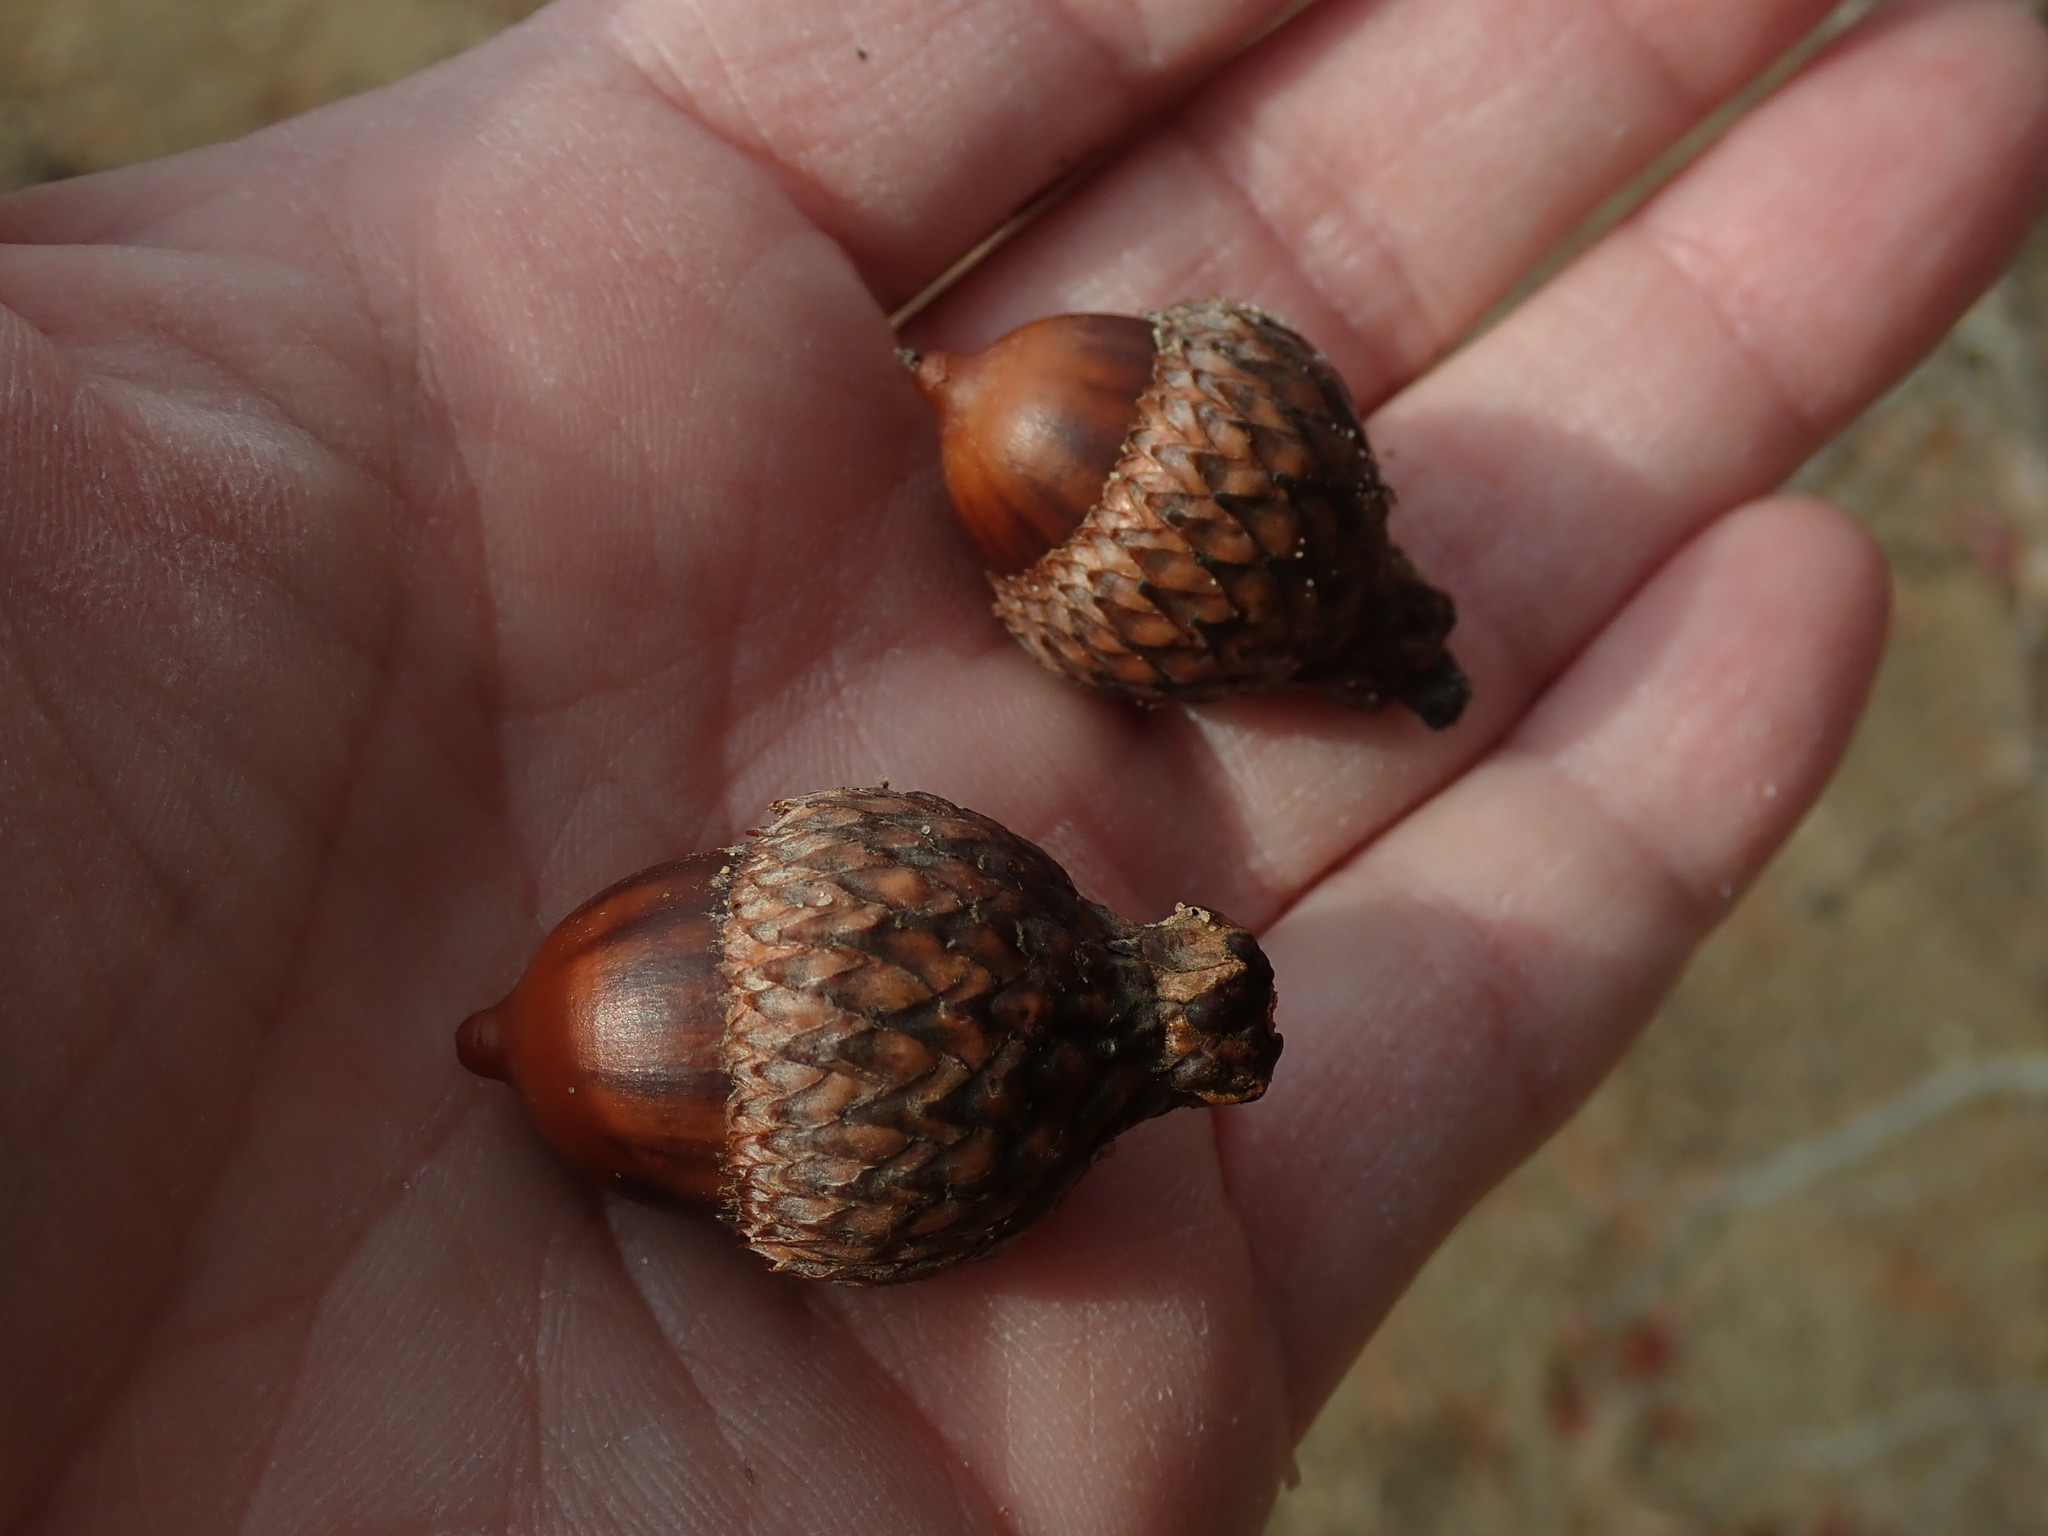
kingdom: Plantae
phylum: Tracheophyta
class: Magnoliopsida
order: Fagales
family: Fagaceae
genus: Quercus
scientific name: Quercus coccinea
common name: Scarlet oak
